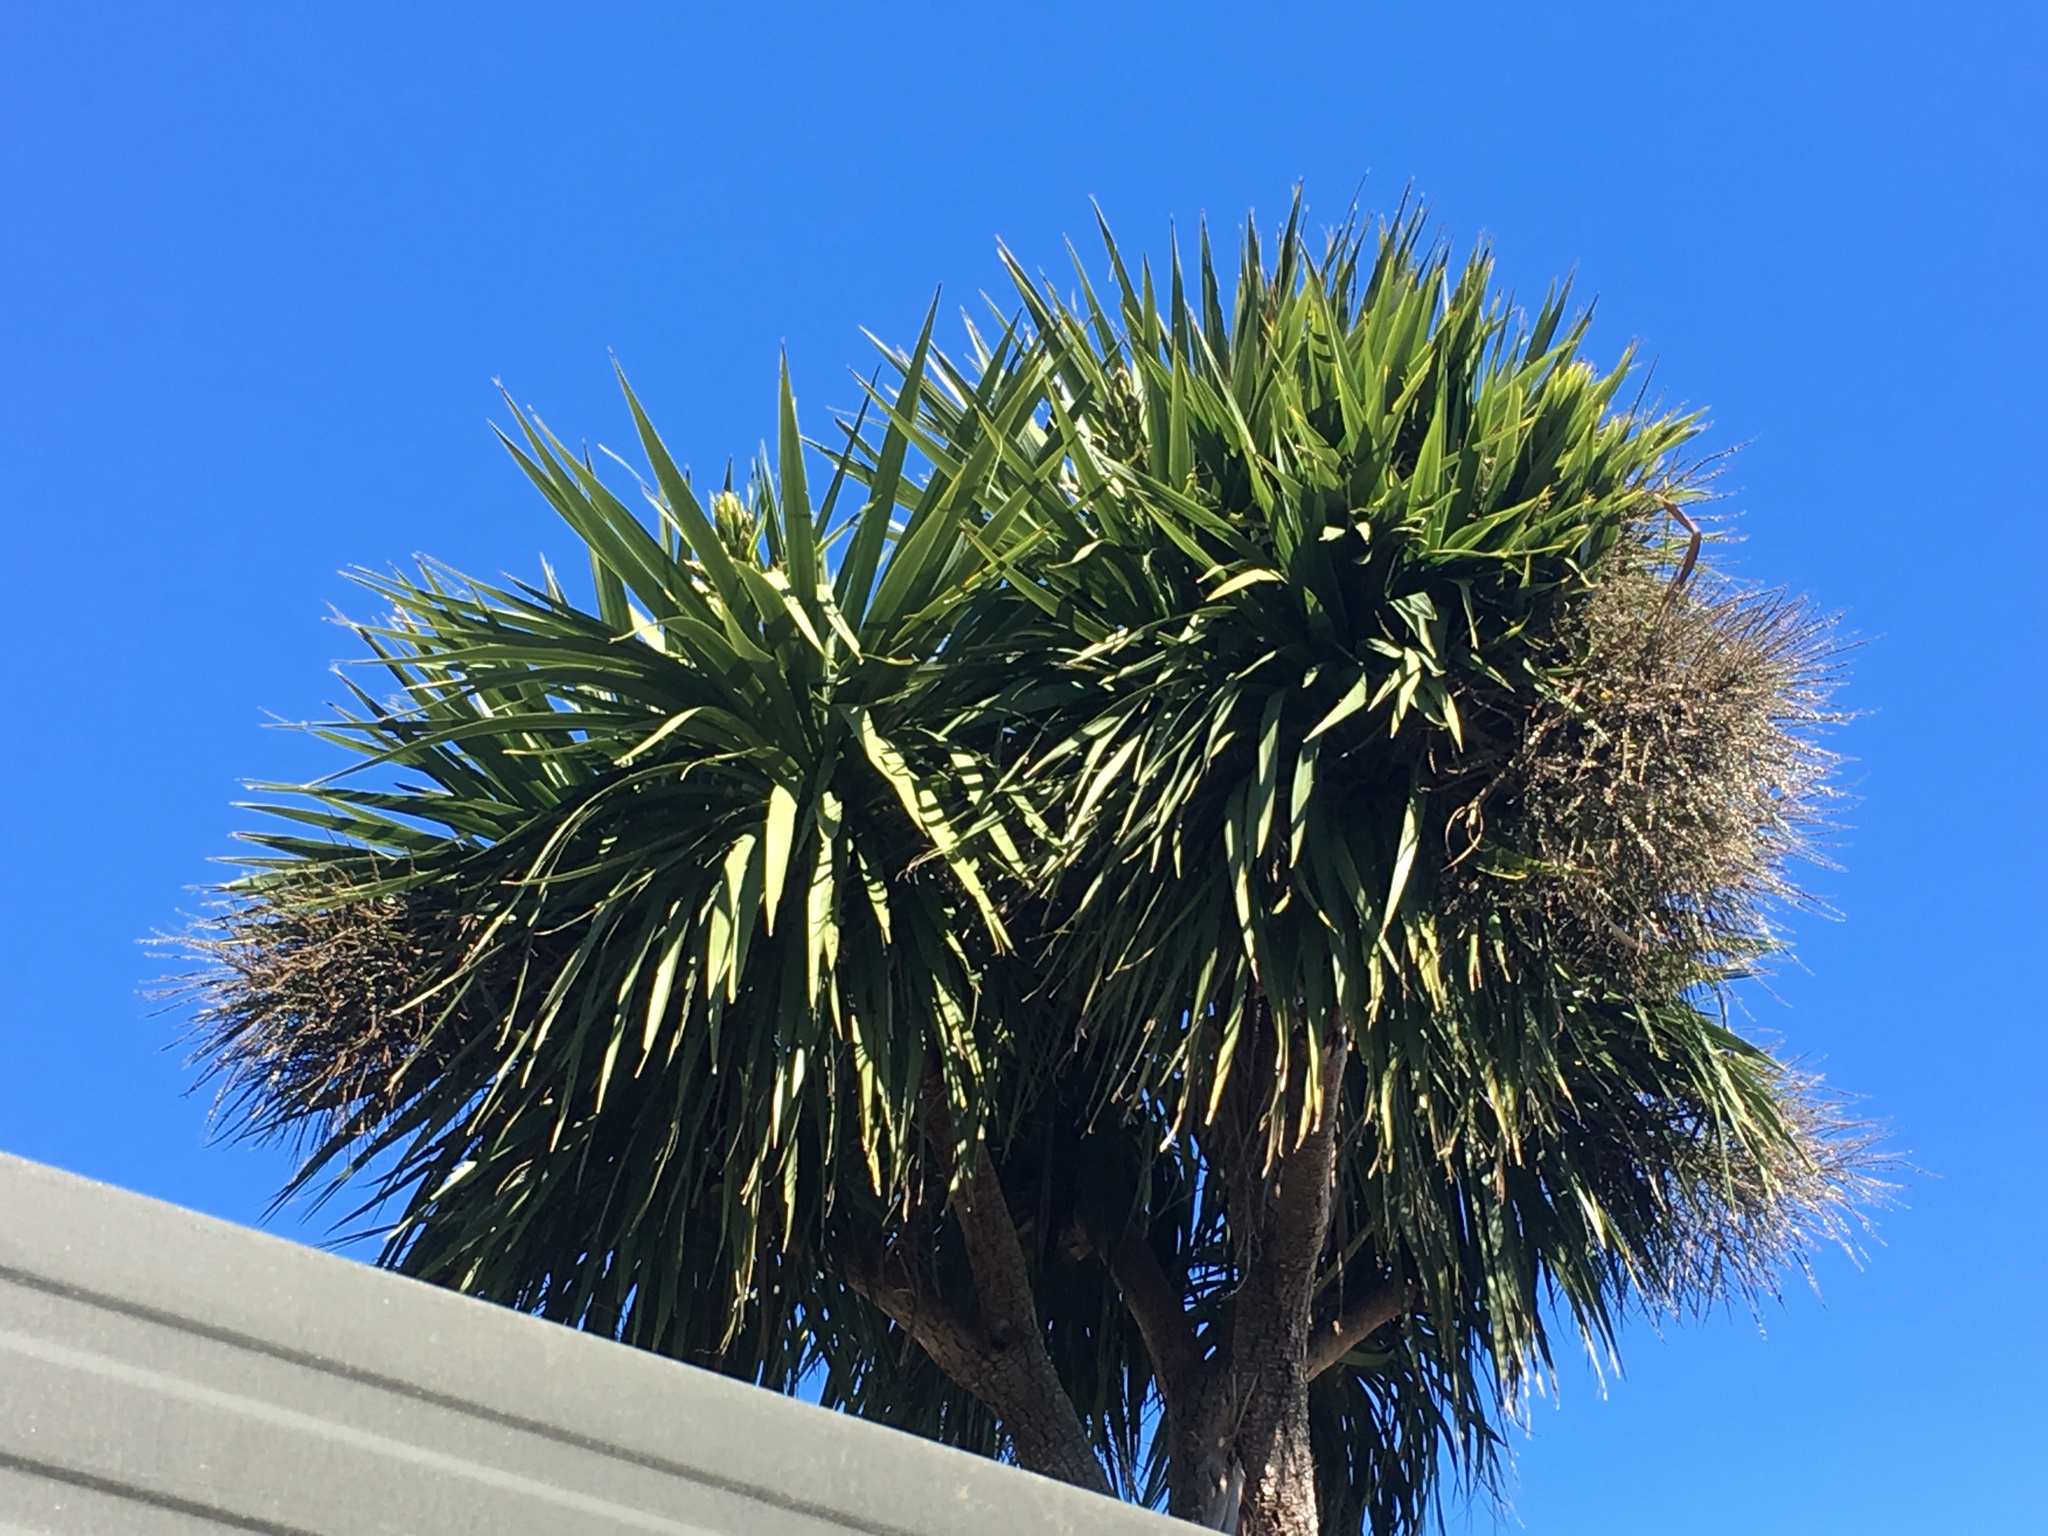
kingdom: Plantae
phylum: Tracheophyta
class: Liliopsida
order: Asparagales
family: Asparagaceae
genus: Cordyline
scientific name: Cordyline australis
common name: Cabbage-palm
